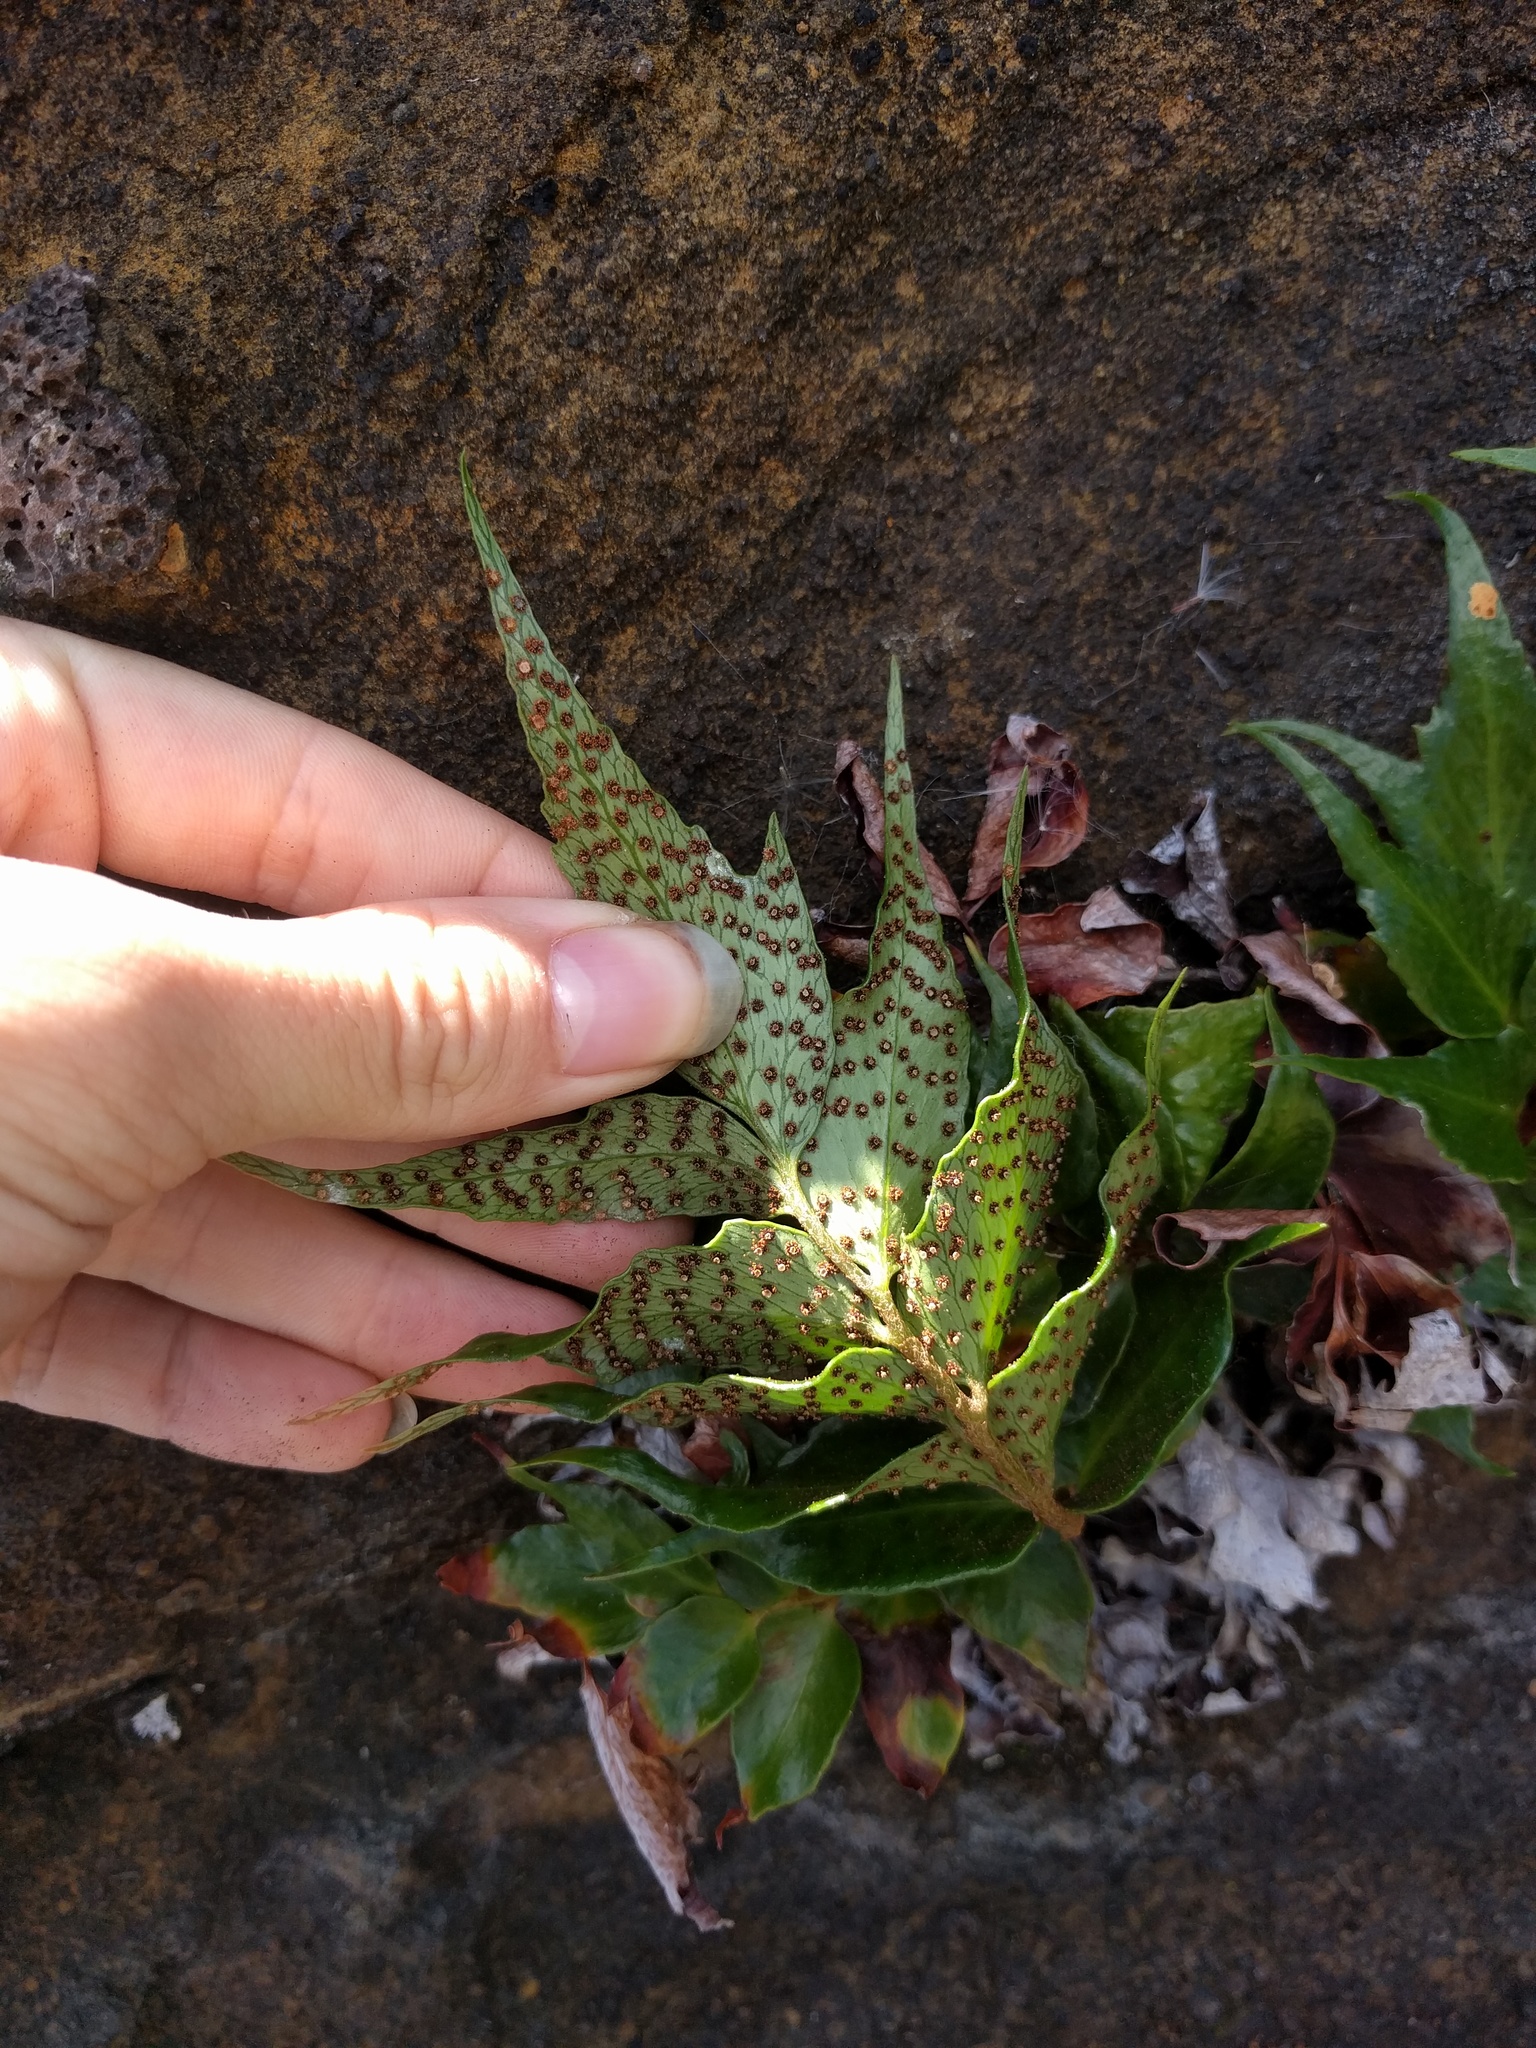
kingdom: Plantae
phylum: Tracheophyta
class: Polypodiopsida
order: Polypodiales
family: Dryopteridaceae
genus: Cyrtomium
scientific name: Cyrtomium falcatum
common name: House holly-fern
